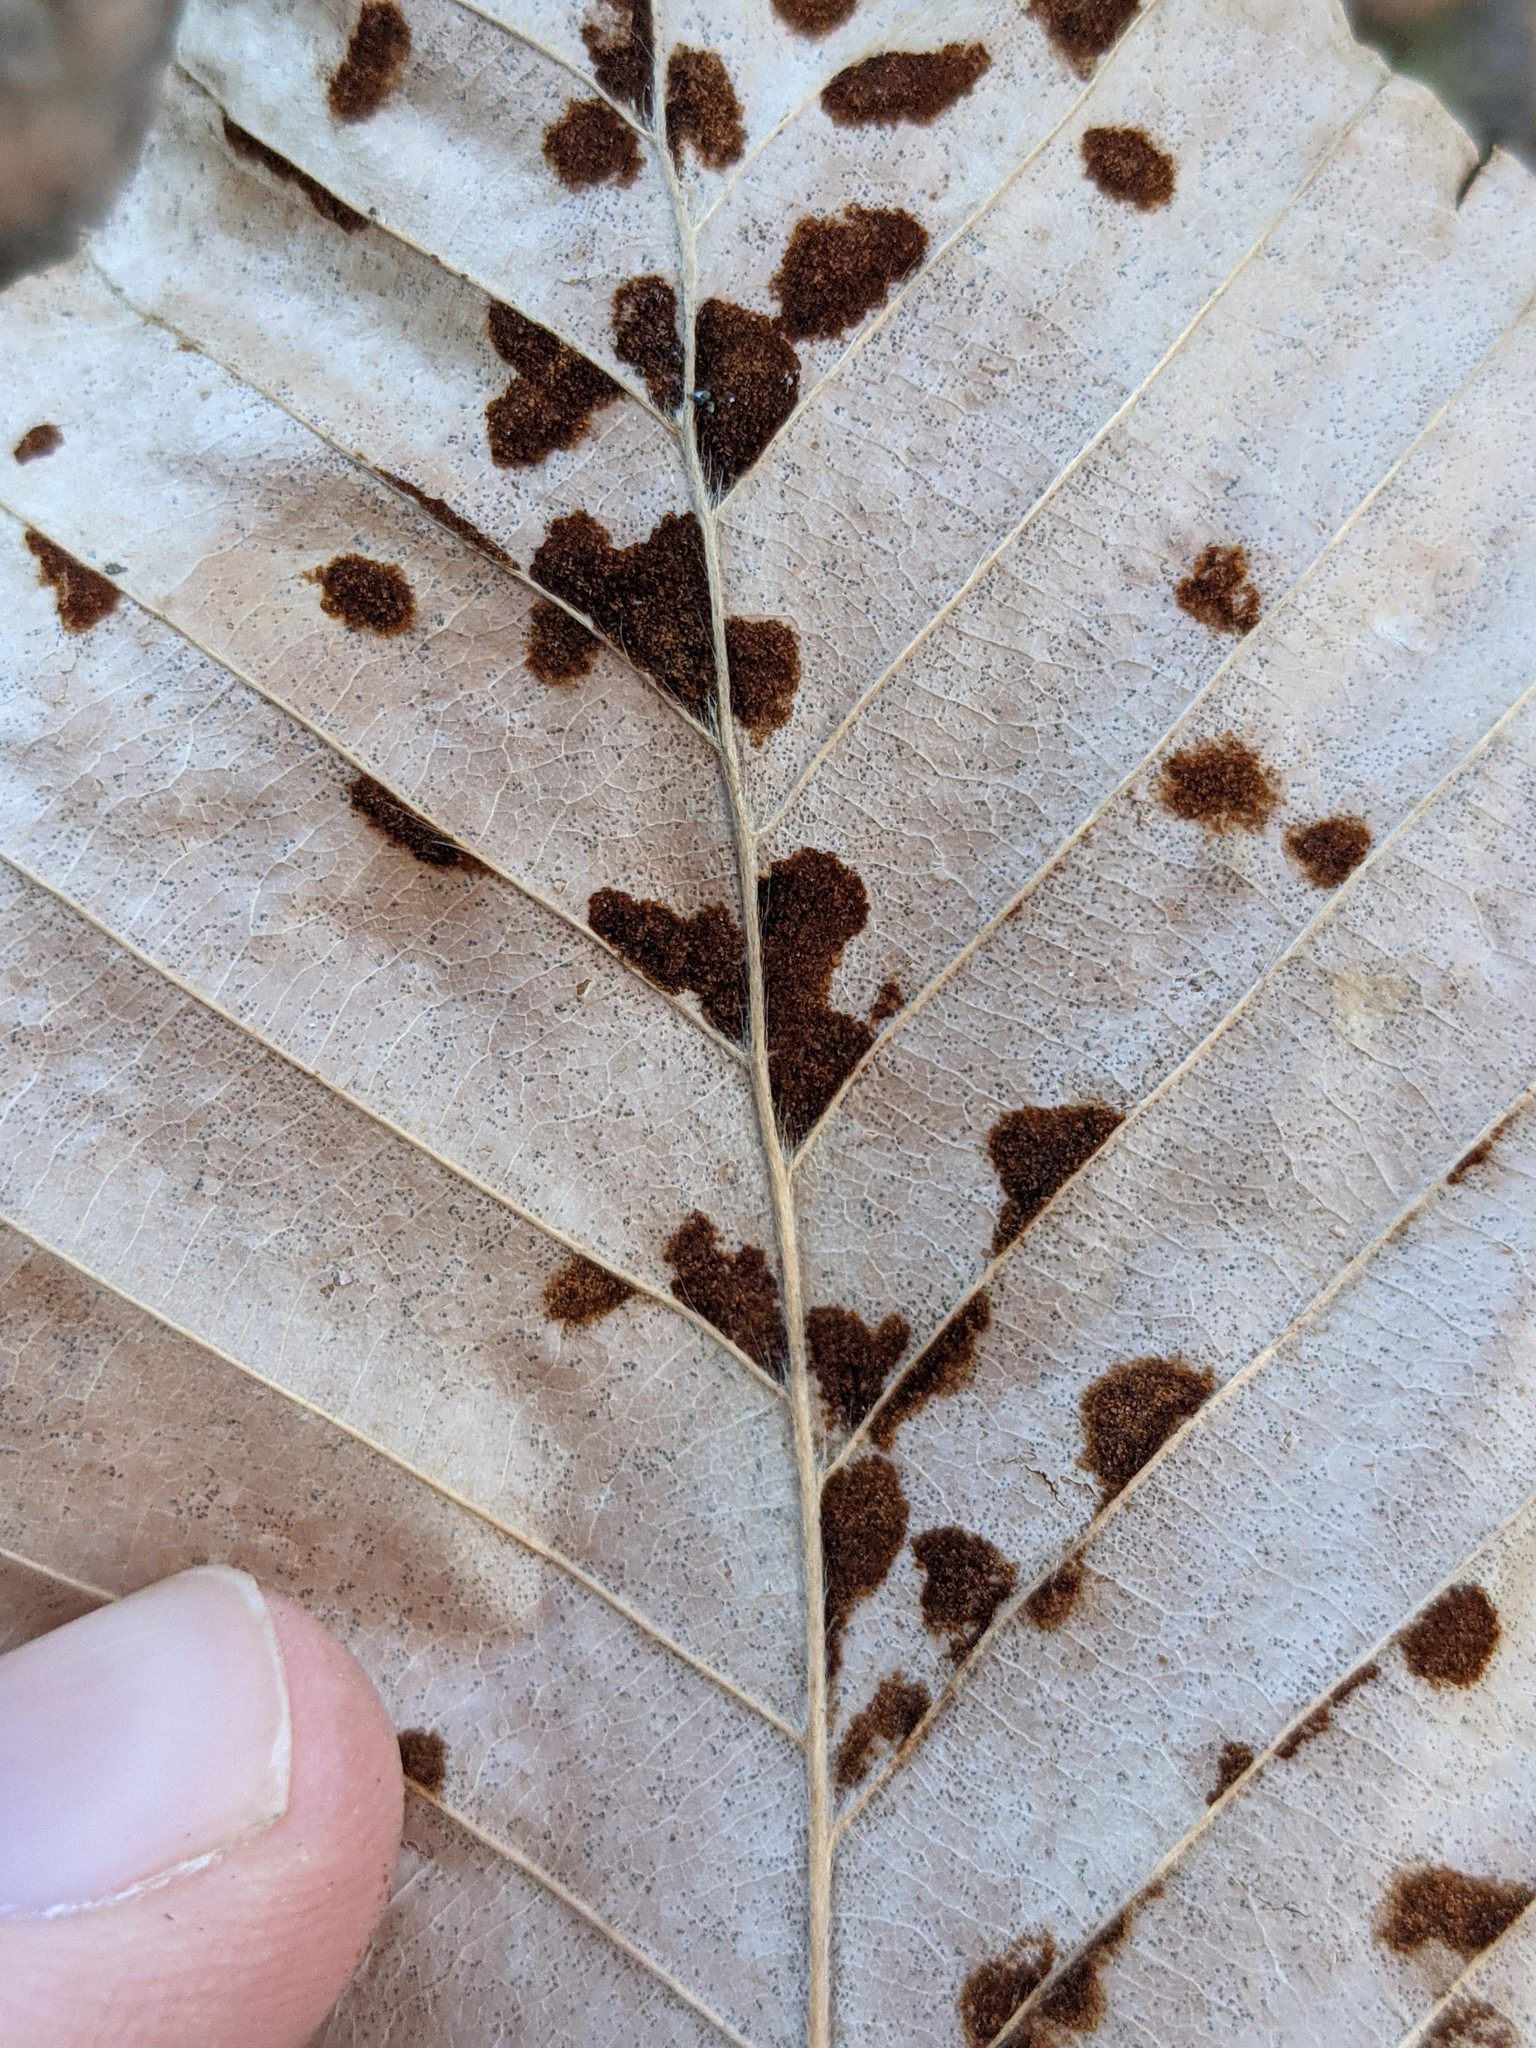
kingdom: Animalia
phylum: Arthropoda
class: Arachnida
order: Trombidiformes
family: Eriophyidae
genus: Acalitus
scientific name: Acalitus
